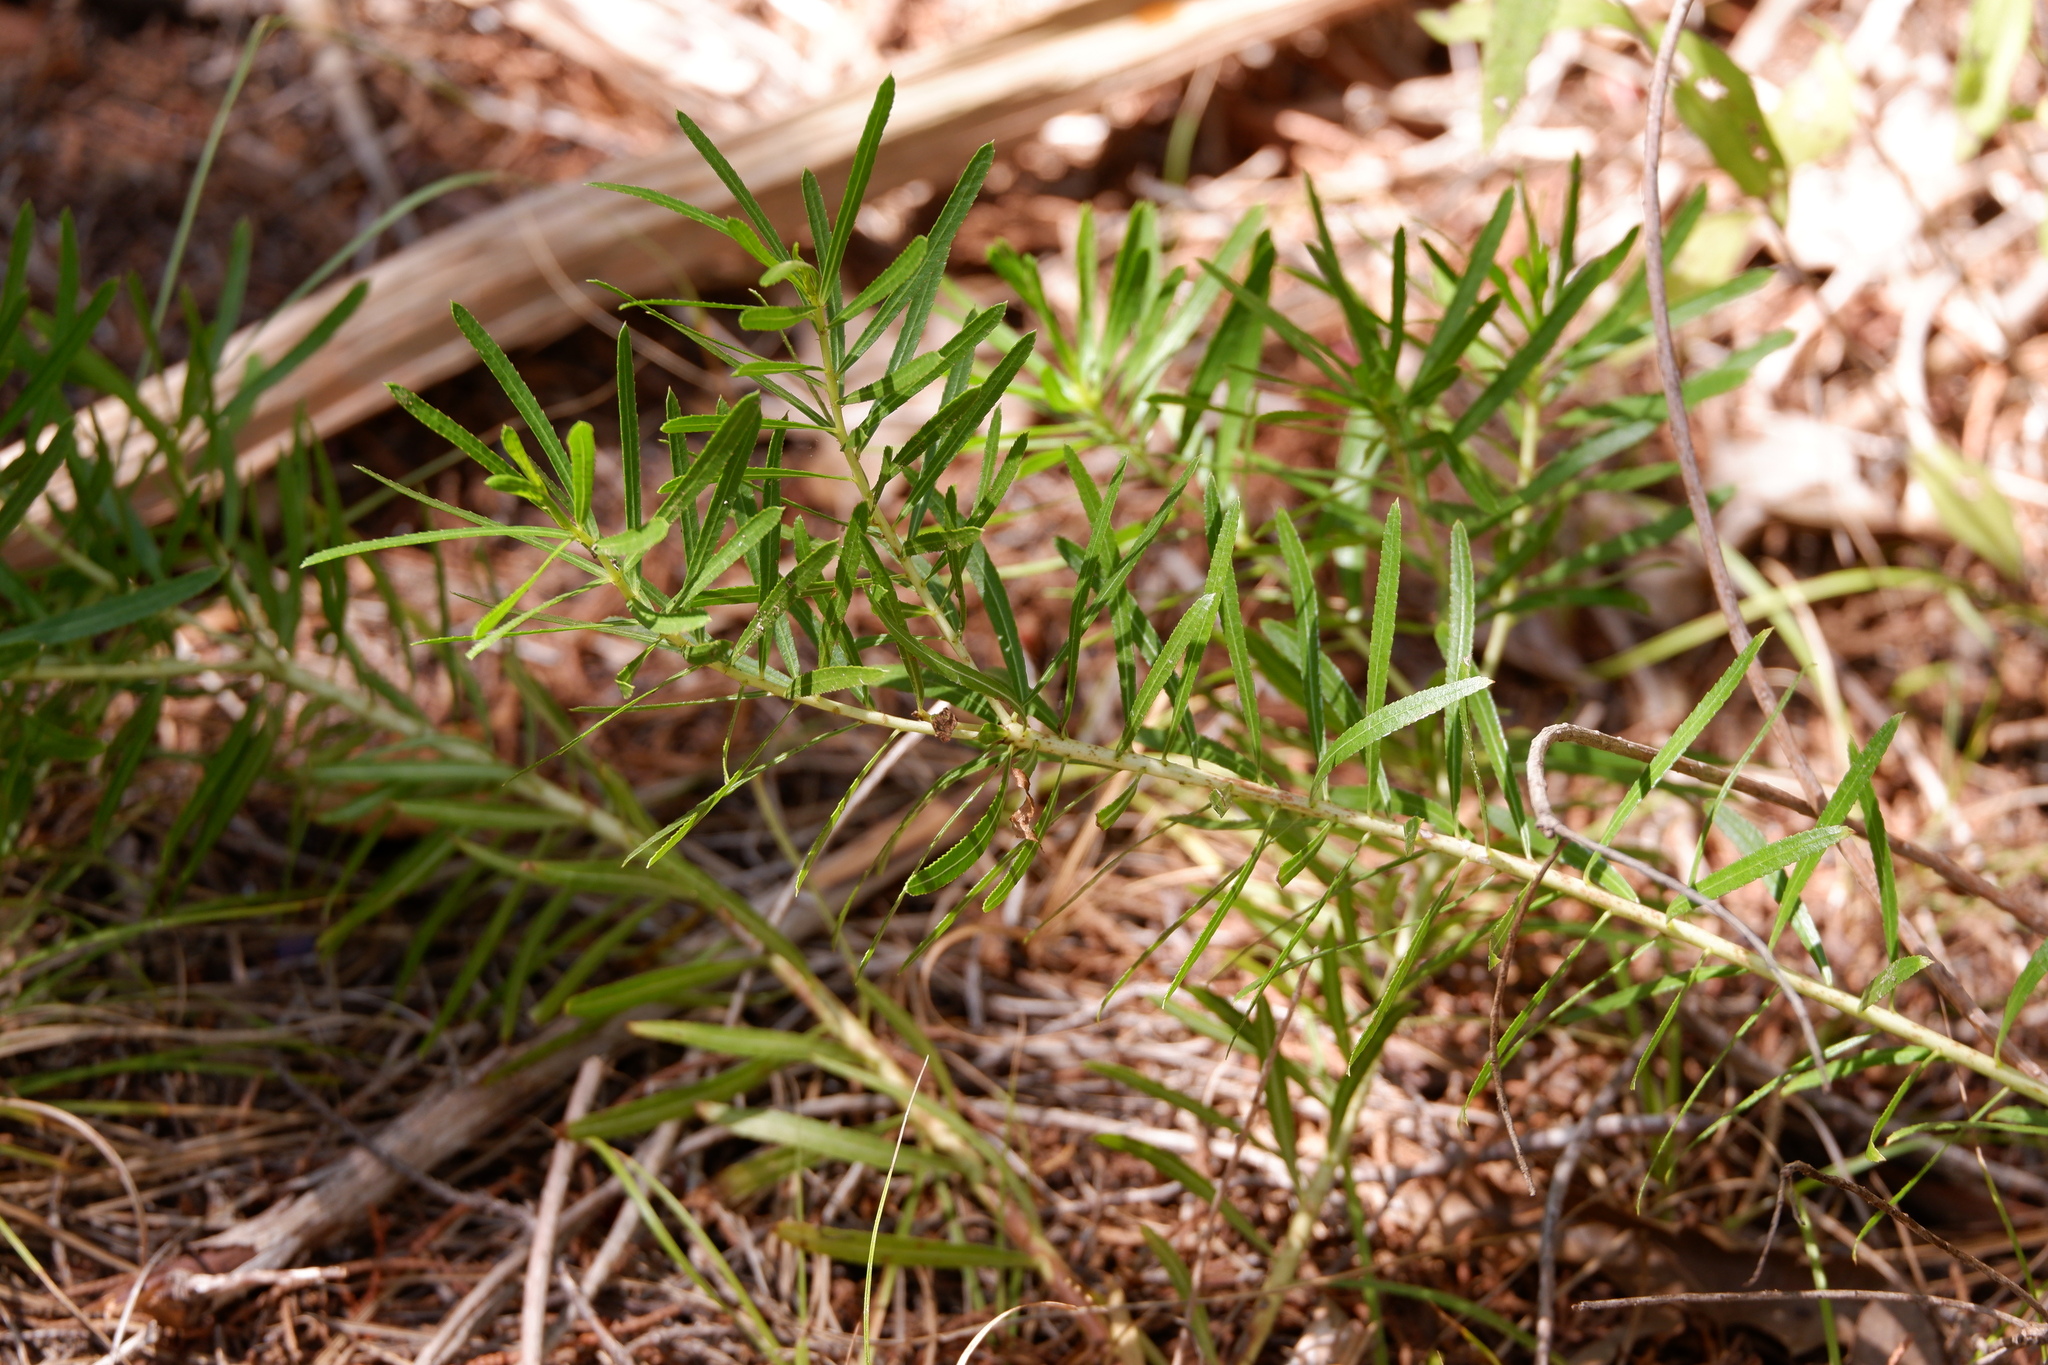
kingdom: Plantae
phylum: Tracheophyta
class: Magnoliopsida
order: Malpighiales
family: Euphorbiaceae
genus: Stillingia
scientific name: Stillingia texana
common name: Texas stillingia
